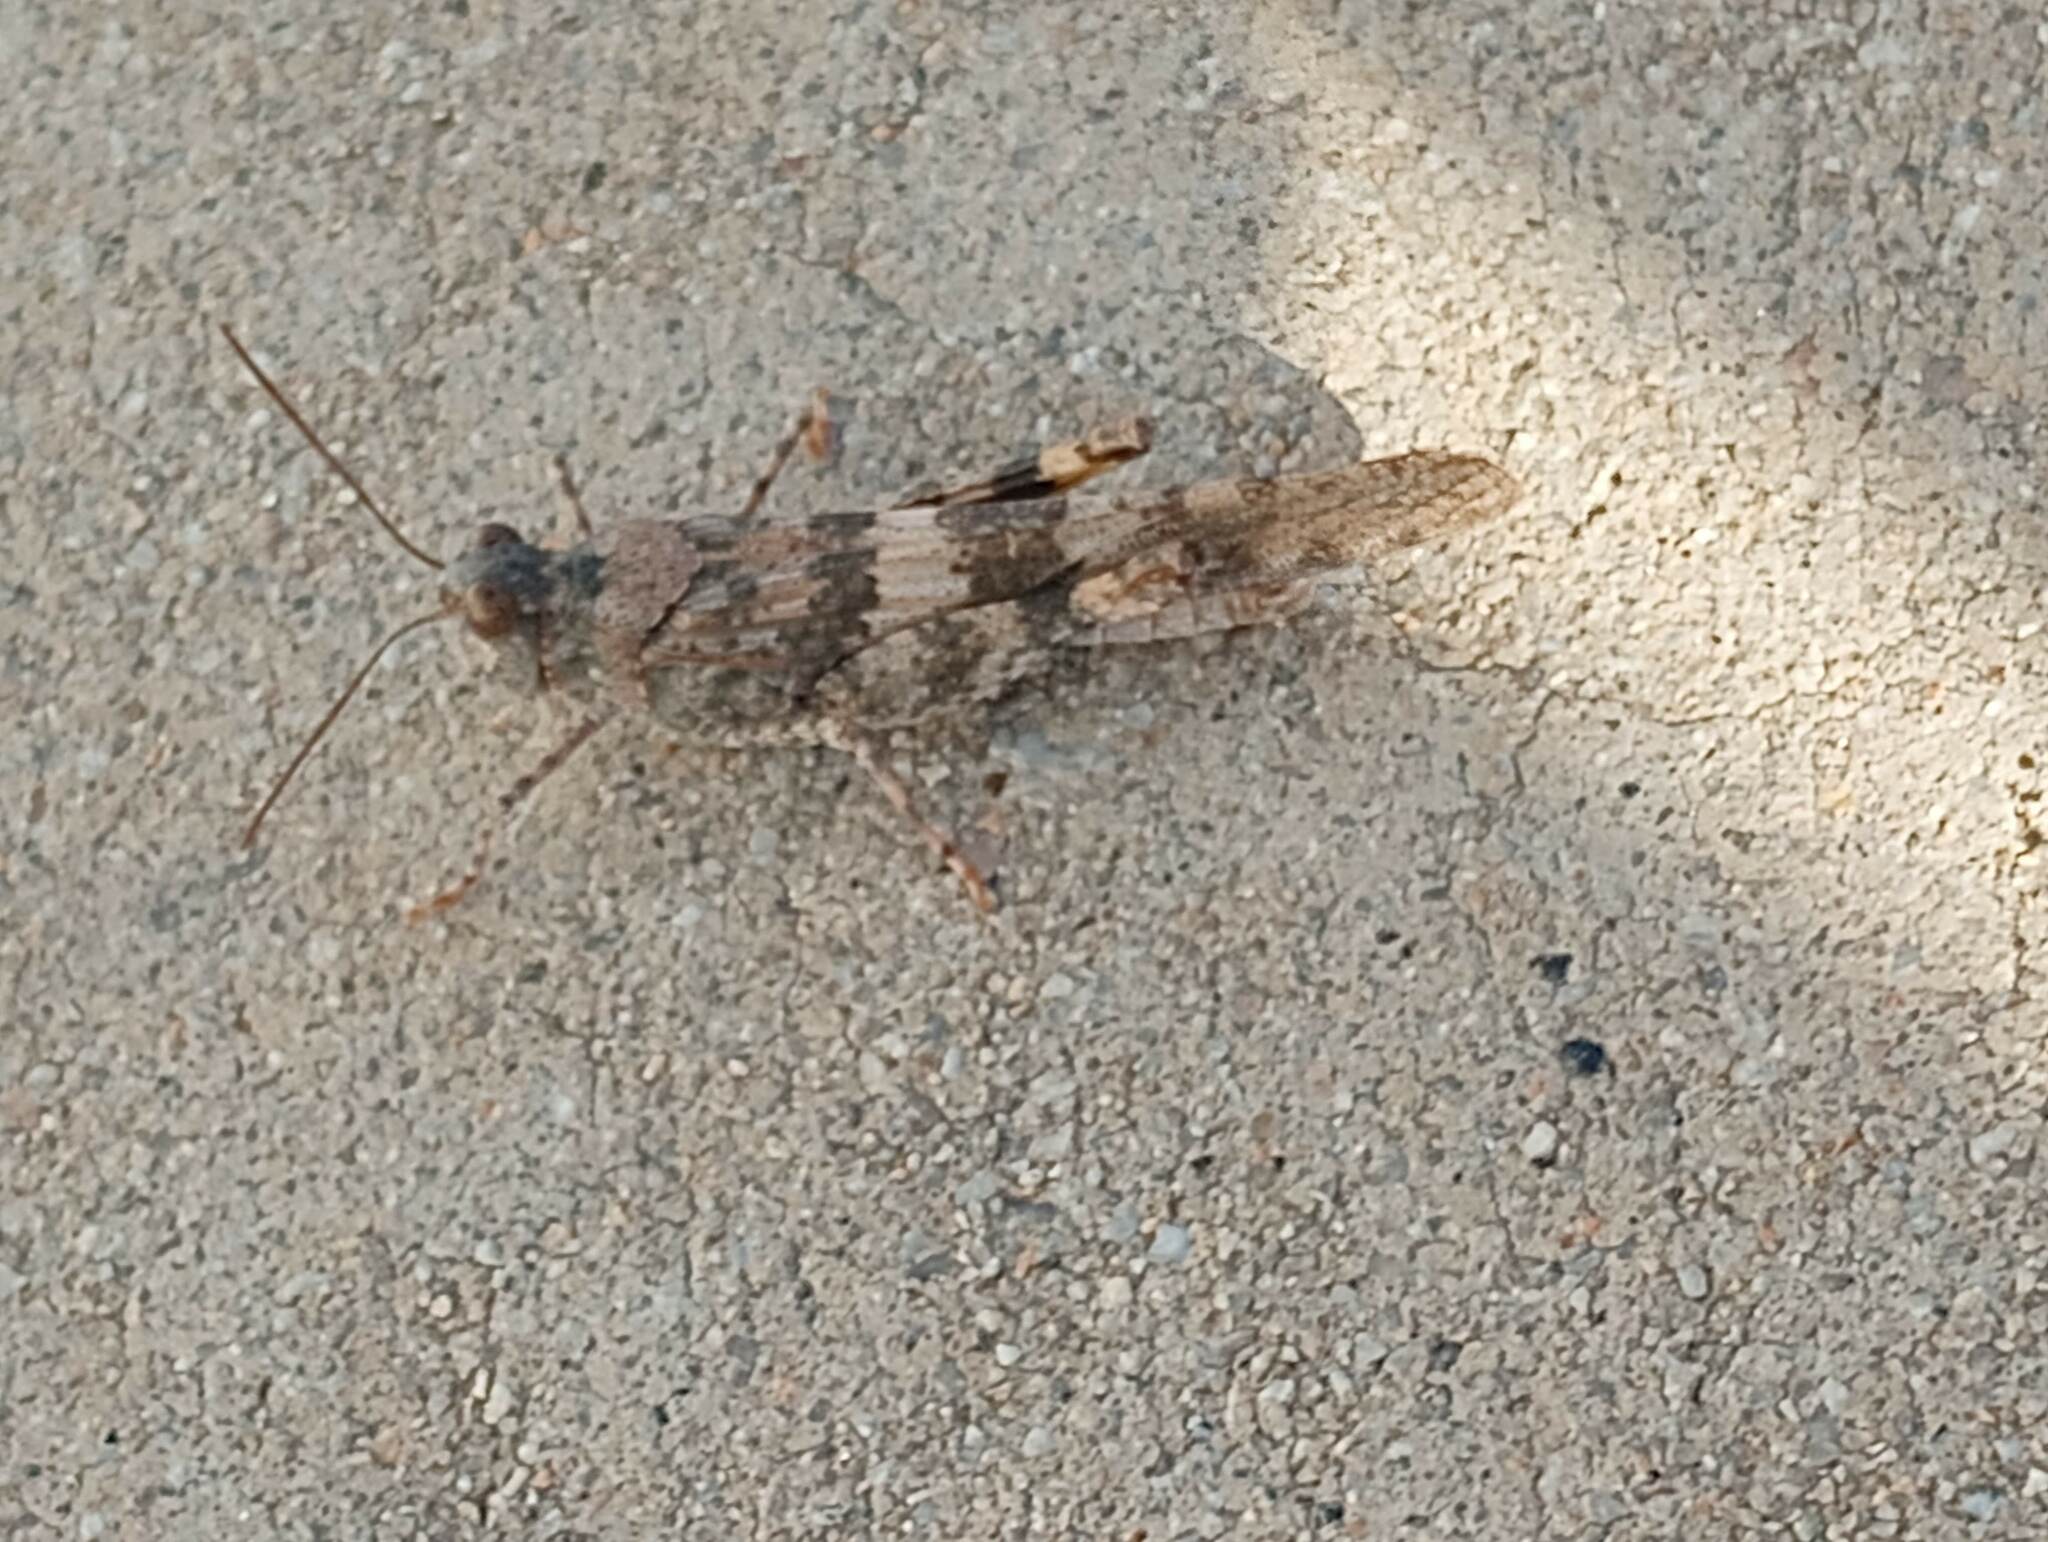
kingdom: Animalia
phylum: Arthropoda
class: Insecta
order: Orthoptera
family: Acrididae
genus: Trimerotropis
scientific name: Trimerotropis pallidipennis
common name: Pallid-winged grasshopper
